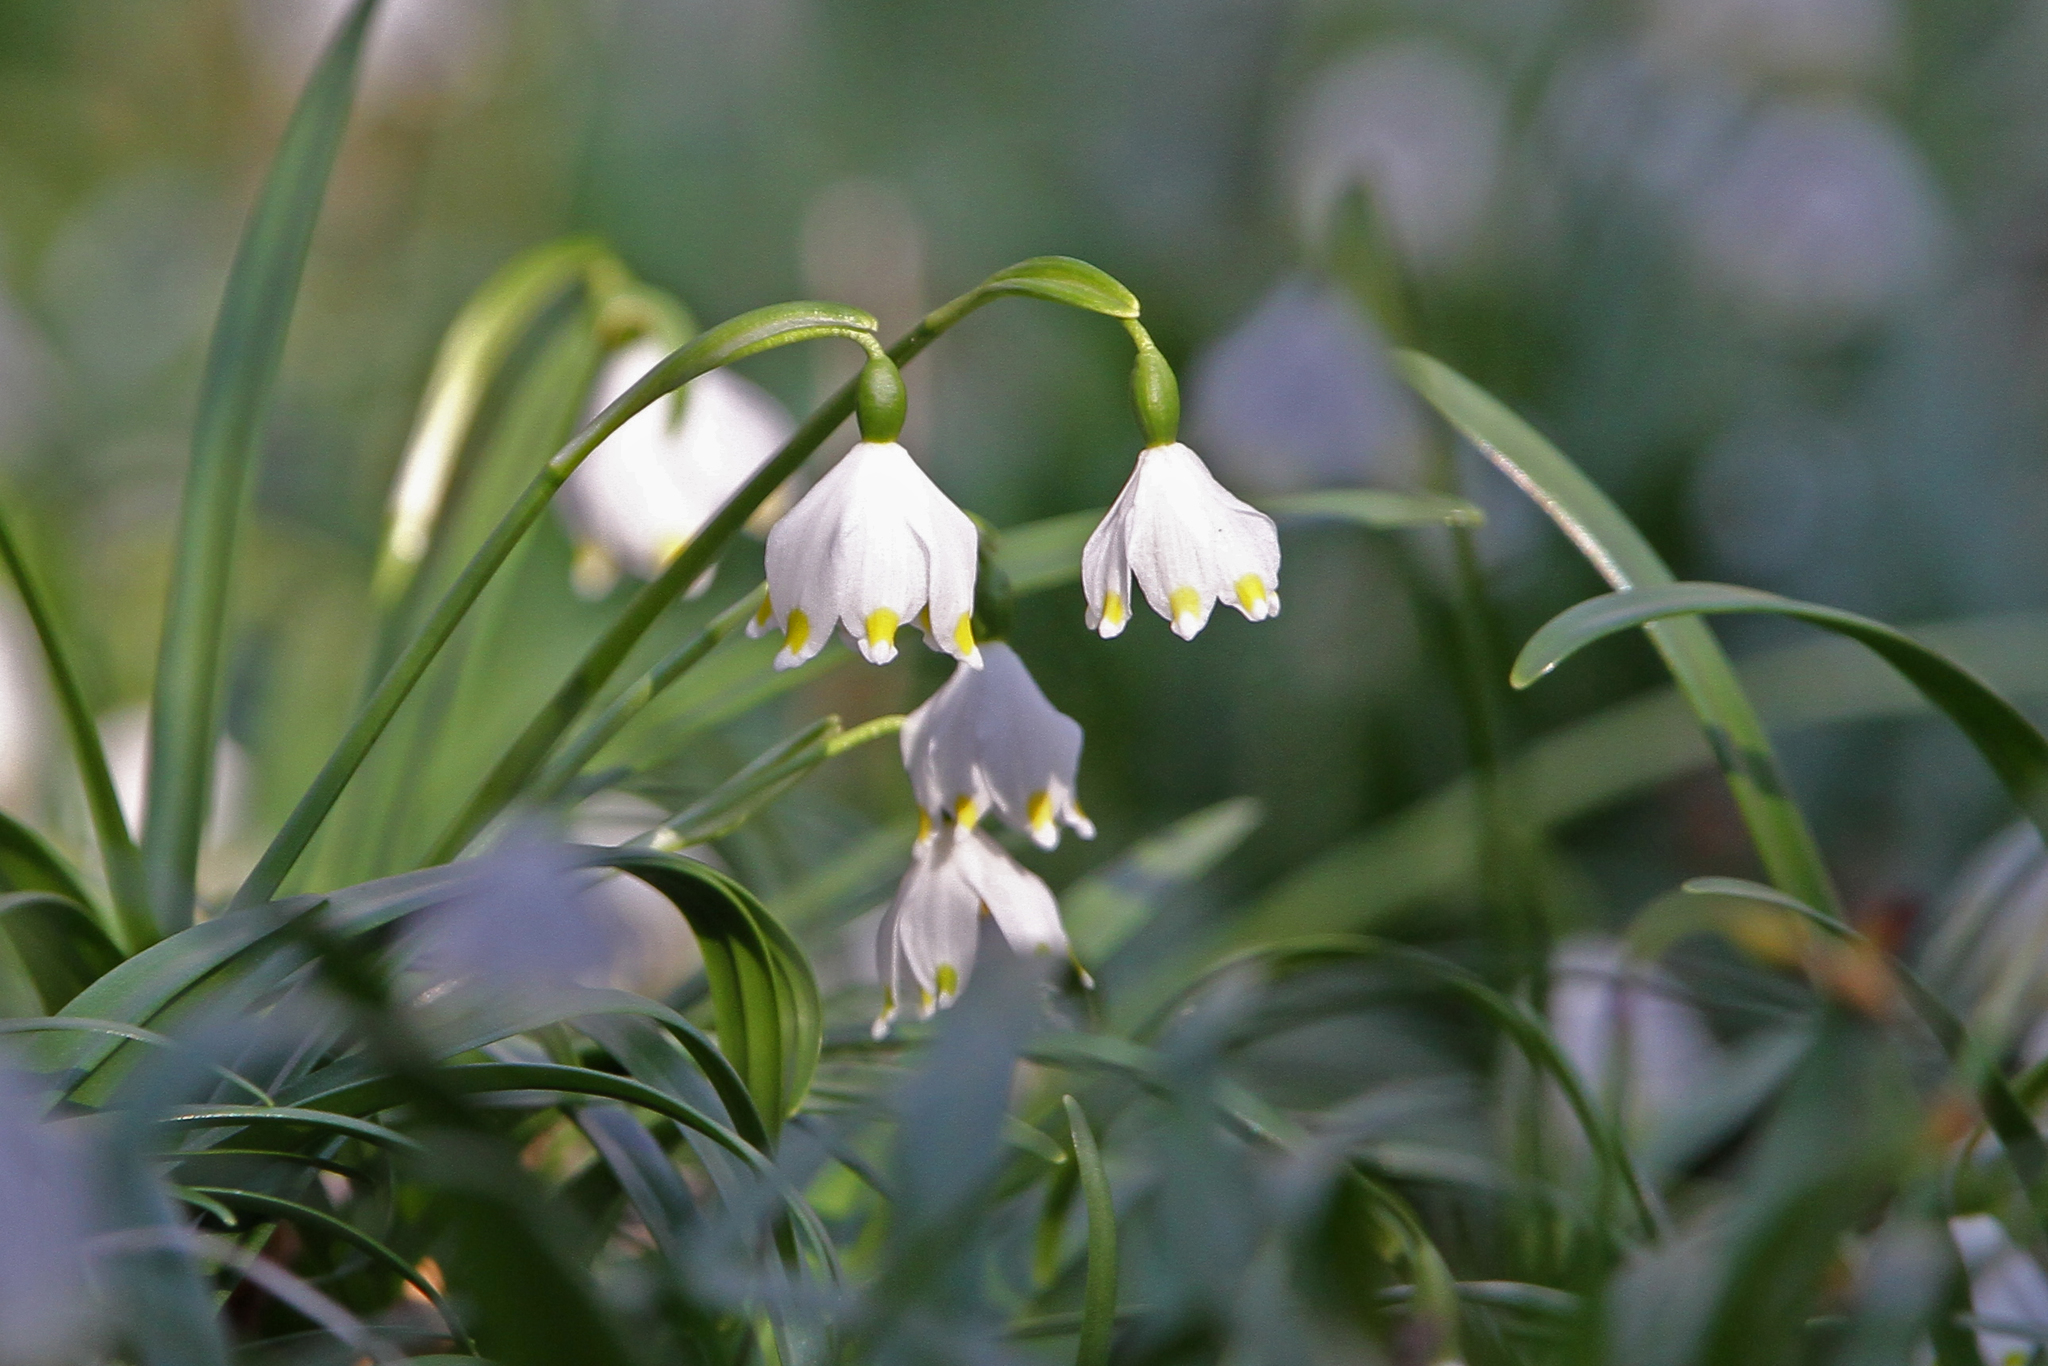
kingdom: Plantae
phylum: Tracheophyta
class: Liliopsida
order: Asparagales
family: Amaryllidaceae
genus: Leucojum
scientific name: Leucojum vernum
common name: Spring snowflake
